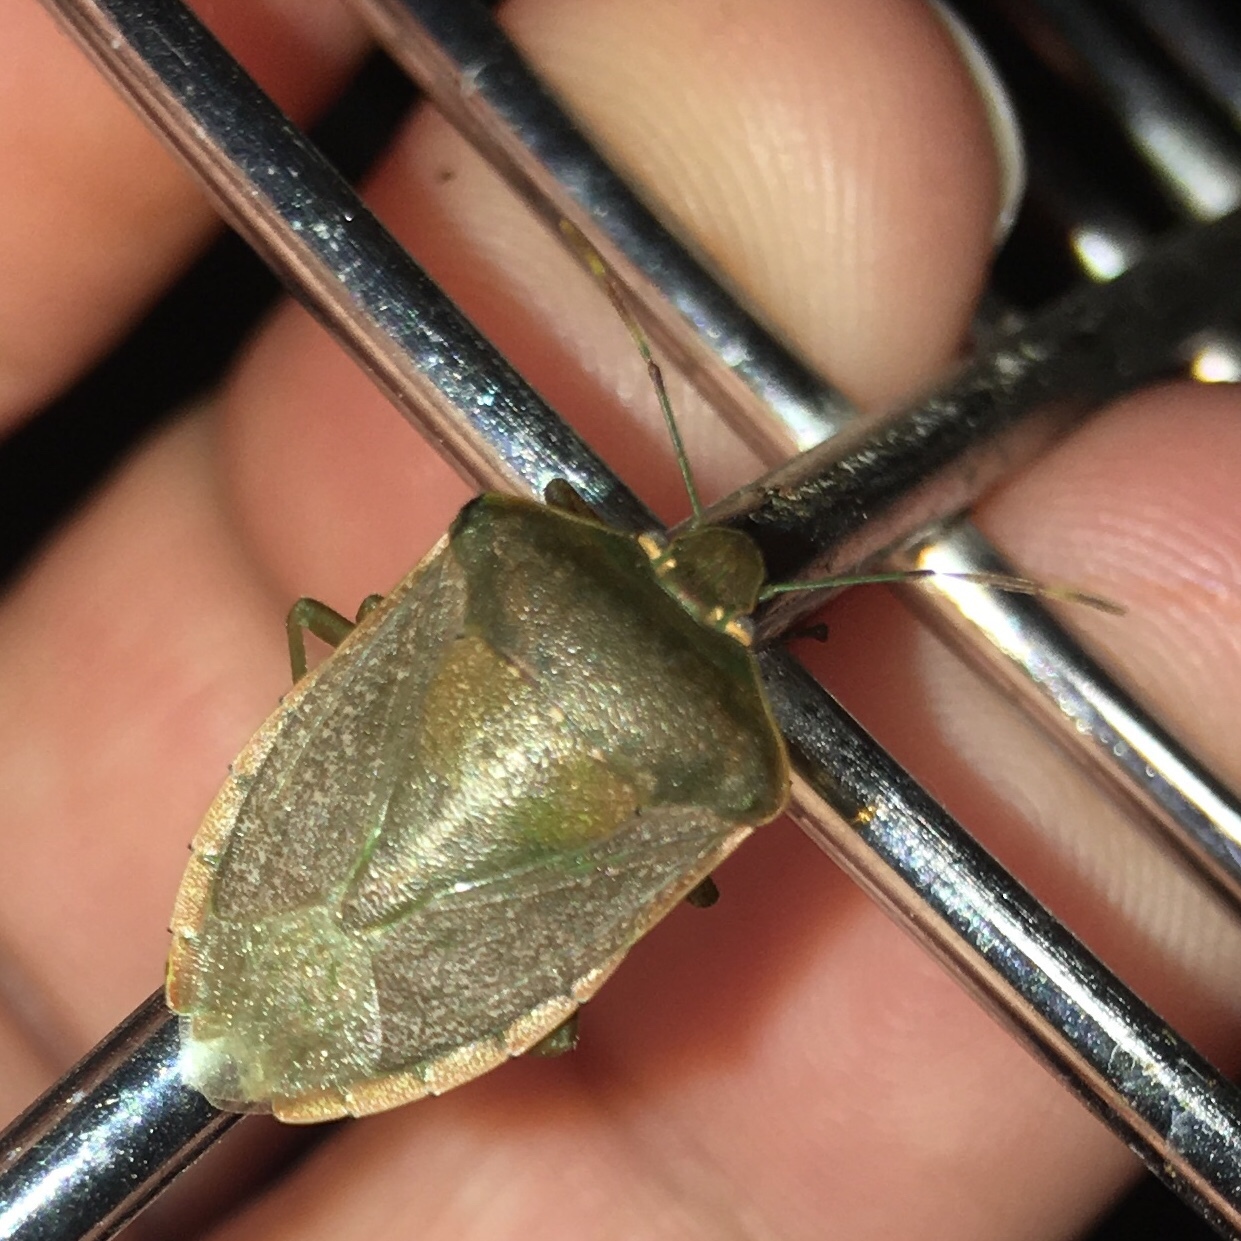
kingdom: Animalia
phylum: Arthropoda
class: Insecta
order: Hemiptera
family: Pentatomidae
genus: Nezara
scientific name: Nezara viridula
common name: Southern green stink bug
